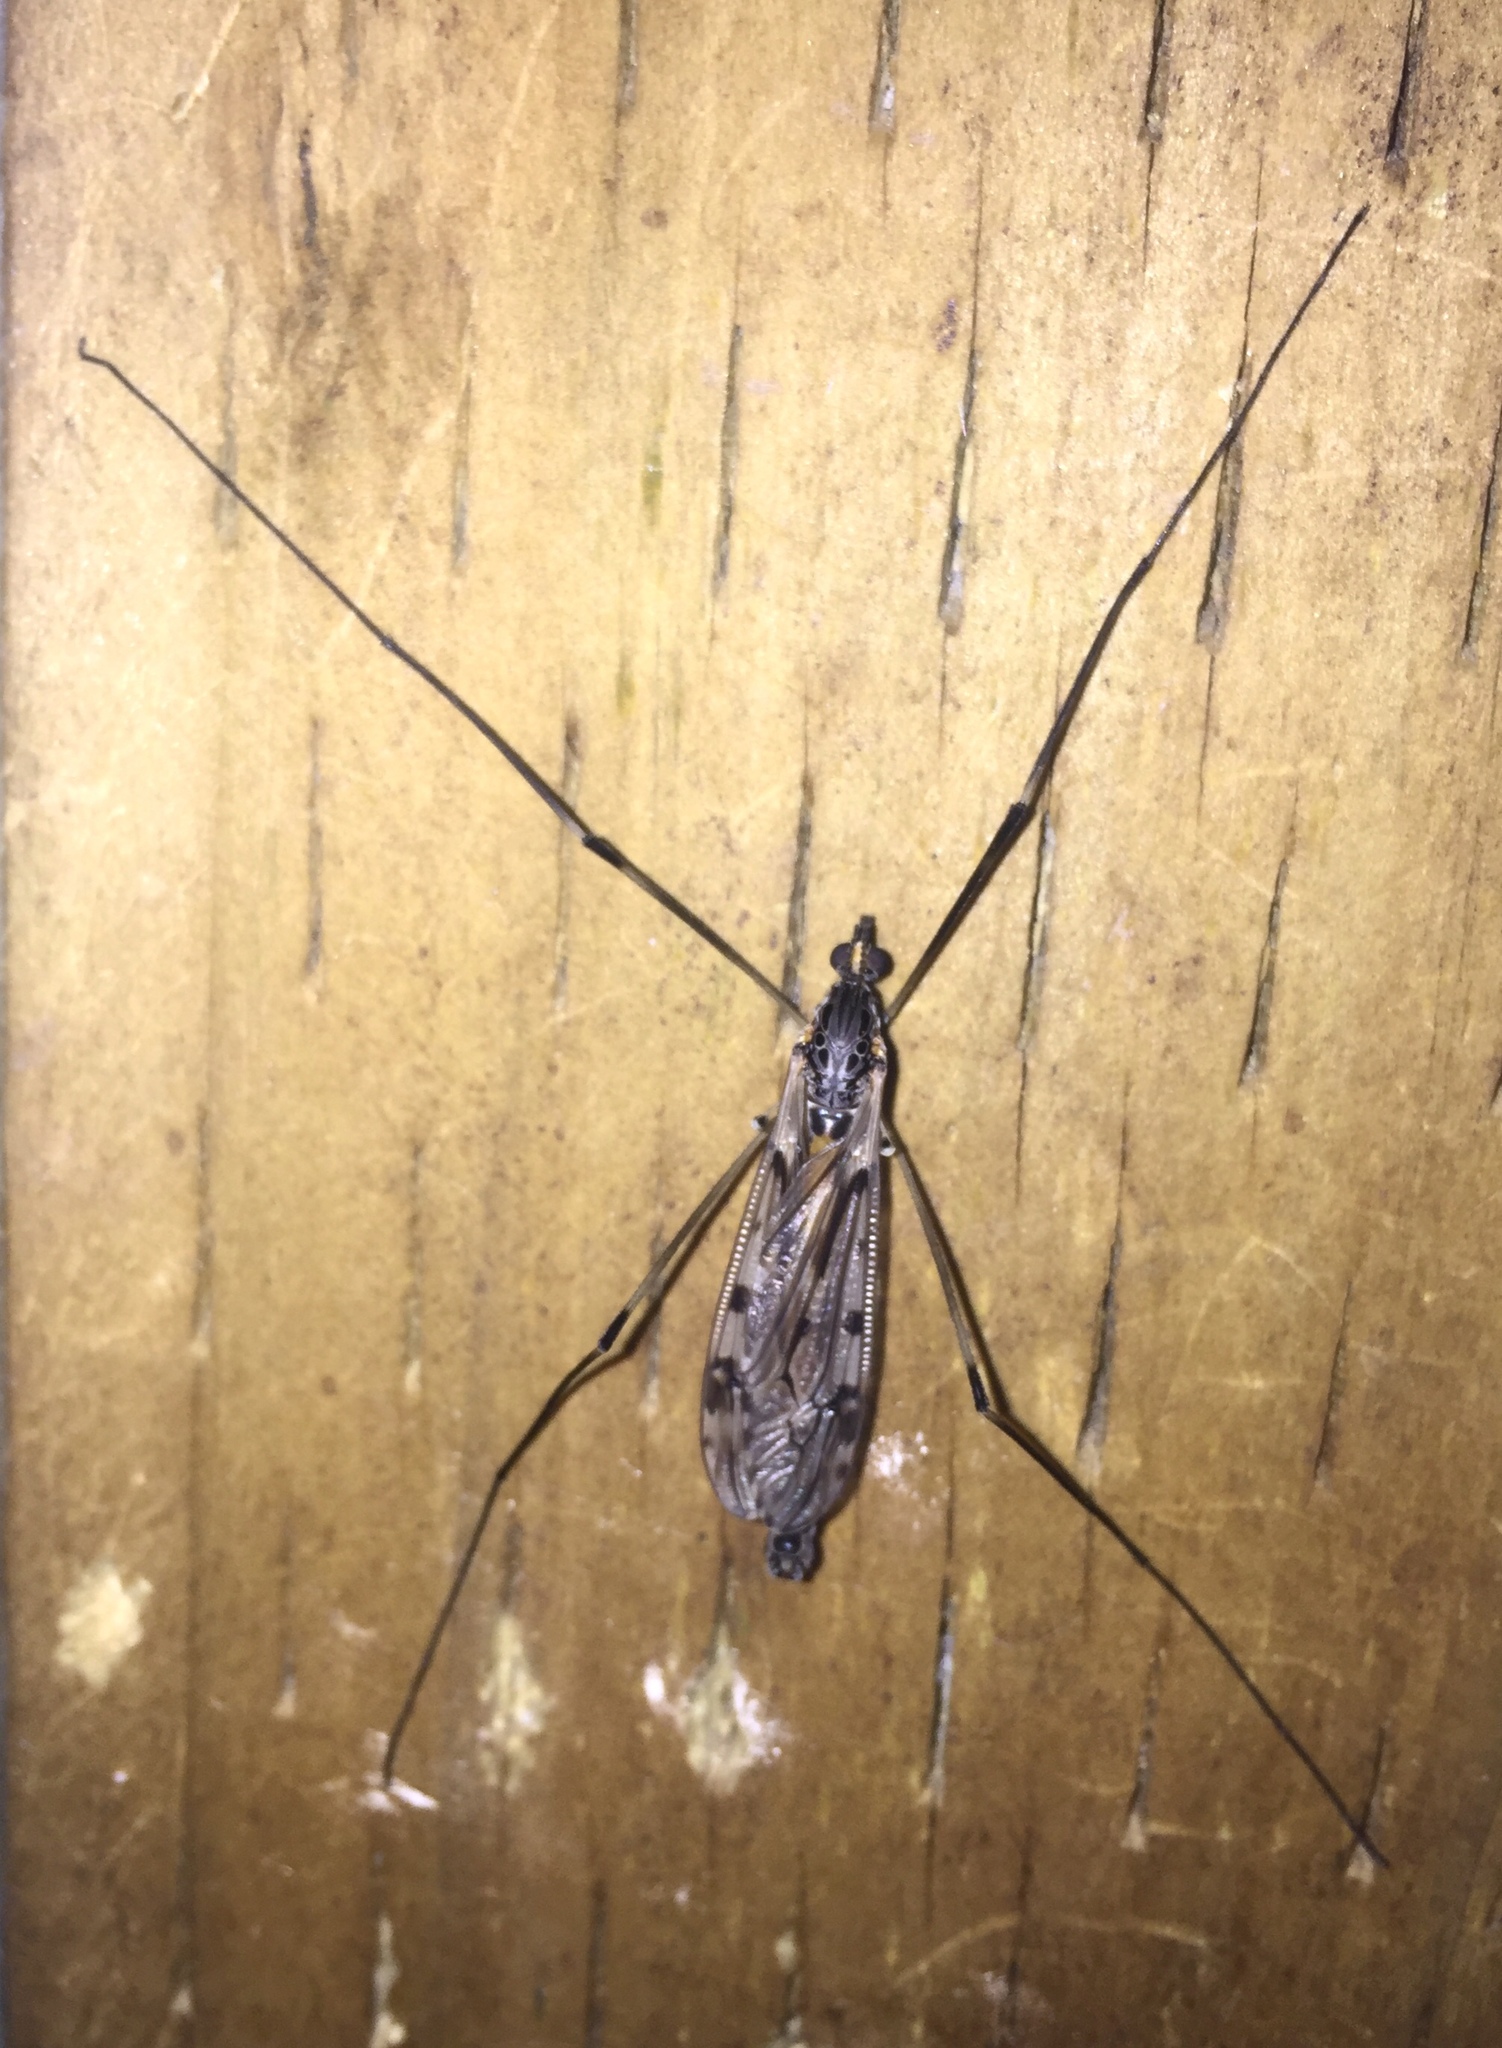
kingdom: Animalia
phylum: Arthropoda
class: Insecta
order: Diptera
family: Tipulidae
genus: Tipula
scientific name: Tipula abdominalis
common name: Giant crane fly
